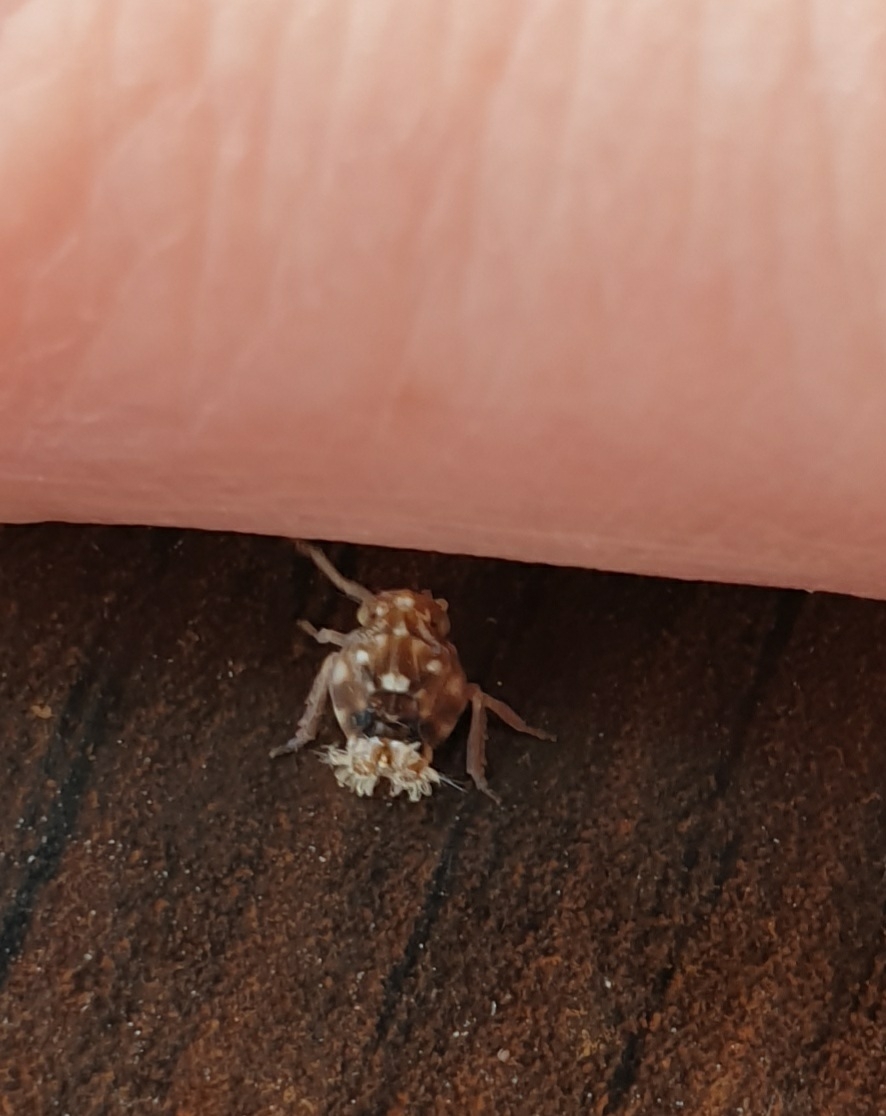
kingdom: Animalia
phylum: Arthropoda
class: Insecta
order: Hemiptera
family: Ricaniidae
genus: Scolypopa
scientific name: Scolypopa australis
